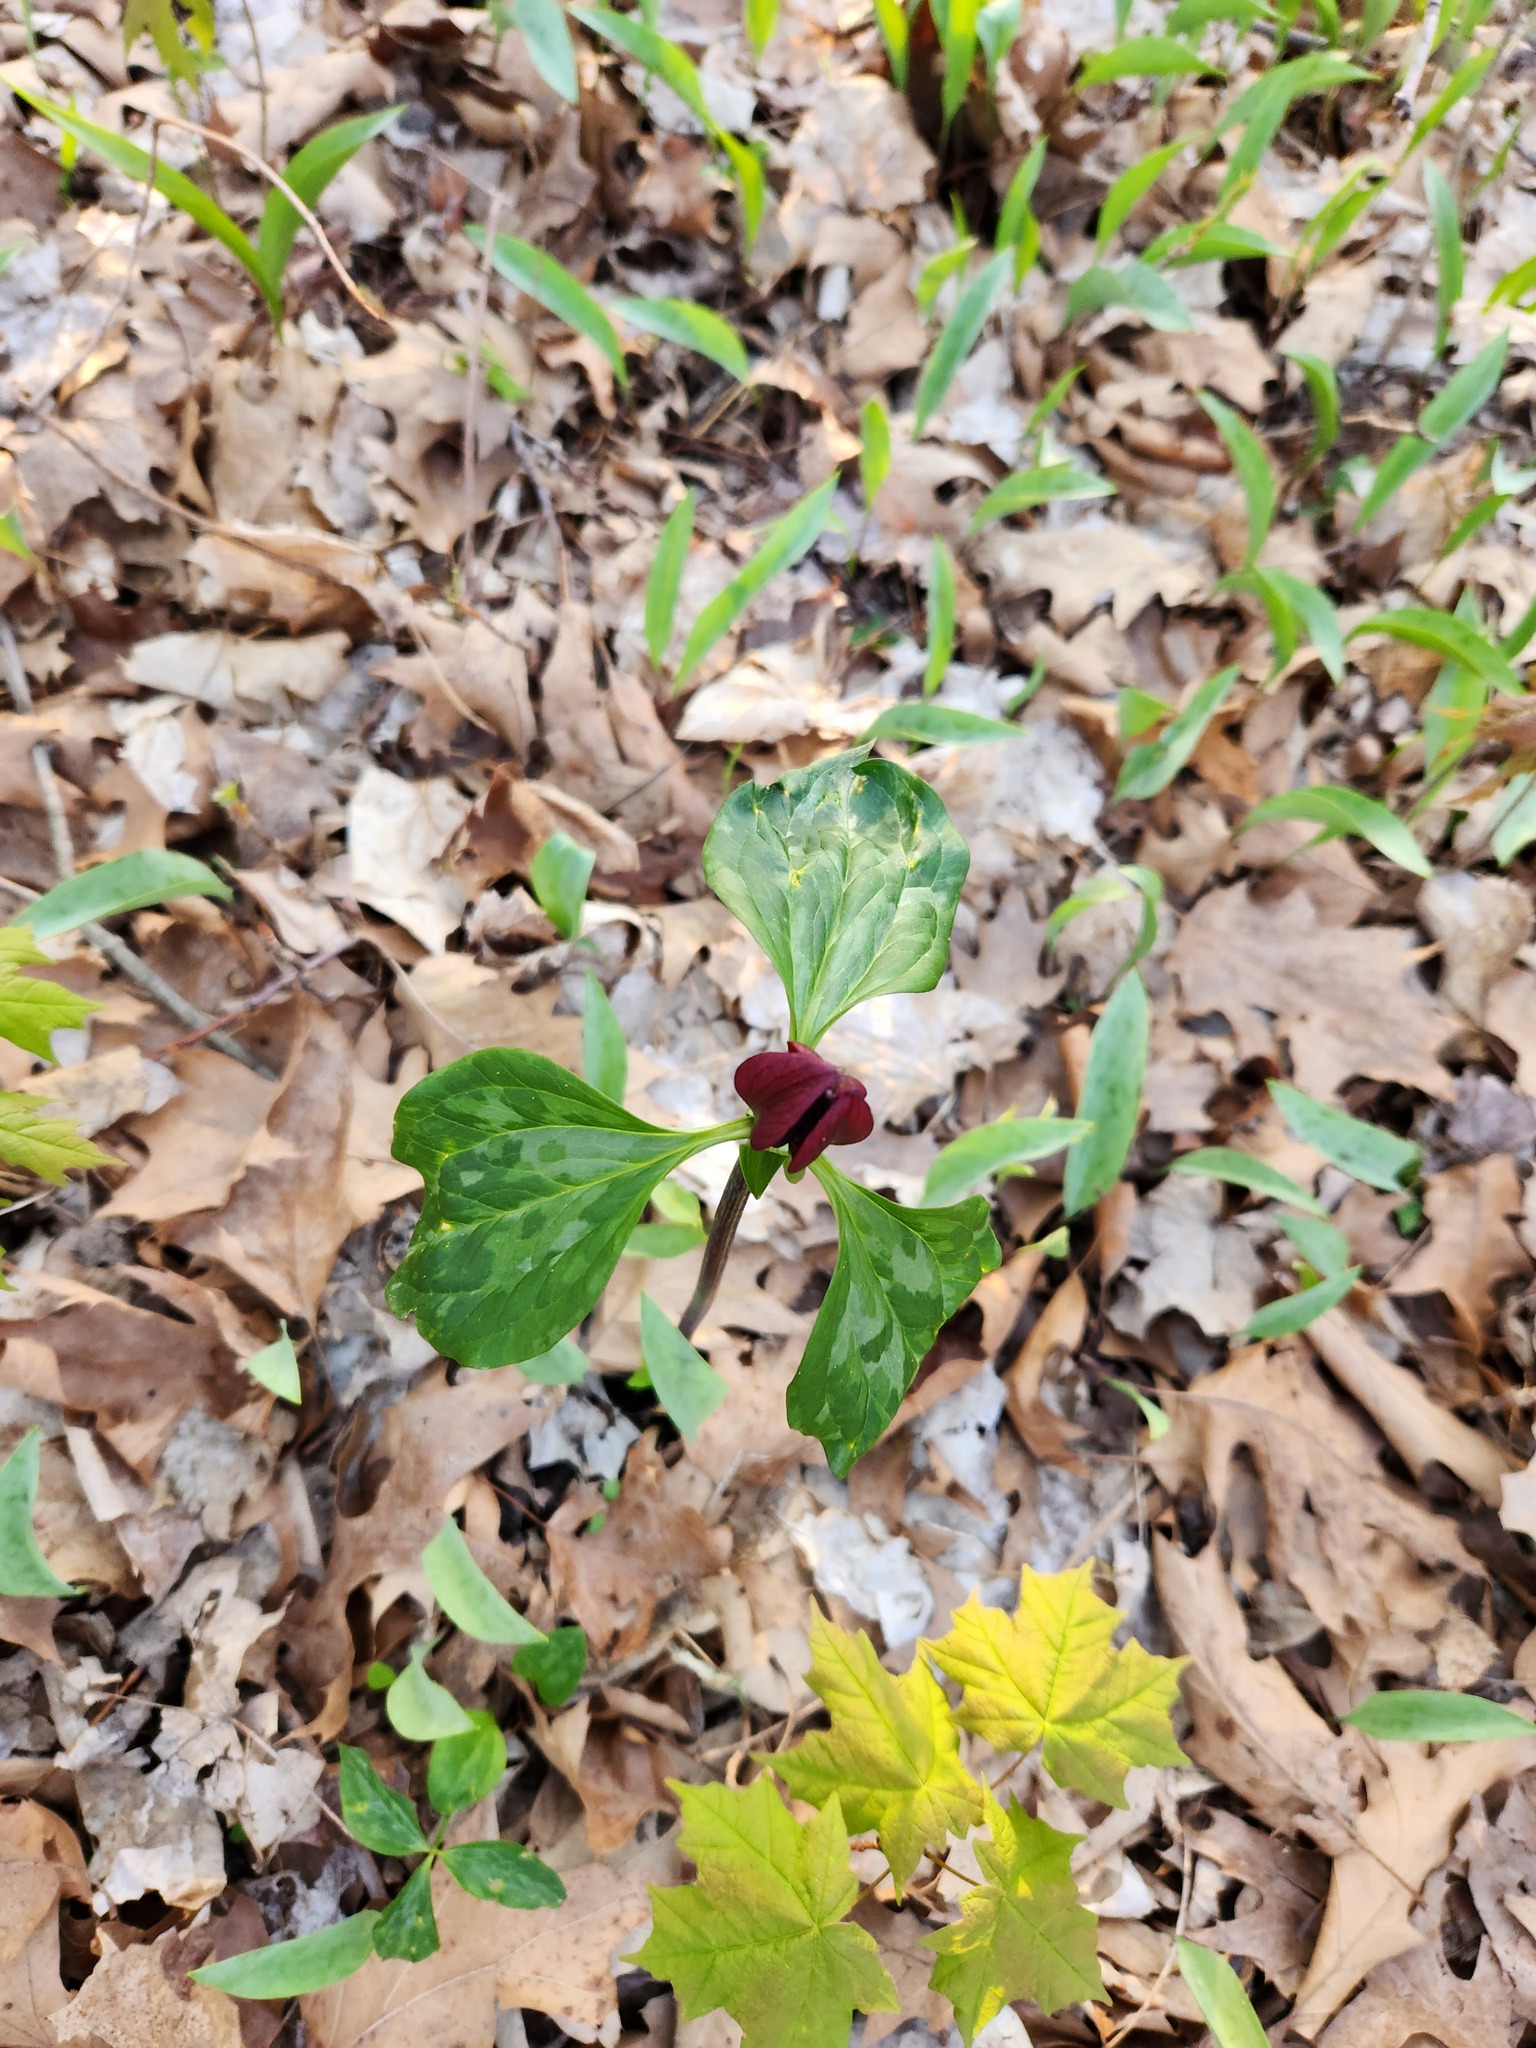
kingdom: Plantae
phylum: Tracheophyta
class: Liliopsida
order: Liliales
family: Melanthiaceae
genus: Trillium
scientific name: Trillium recurvatum
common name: Bloody butcher
